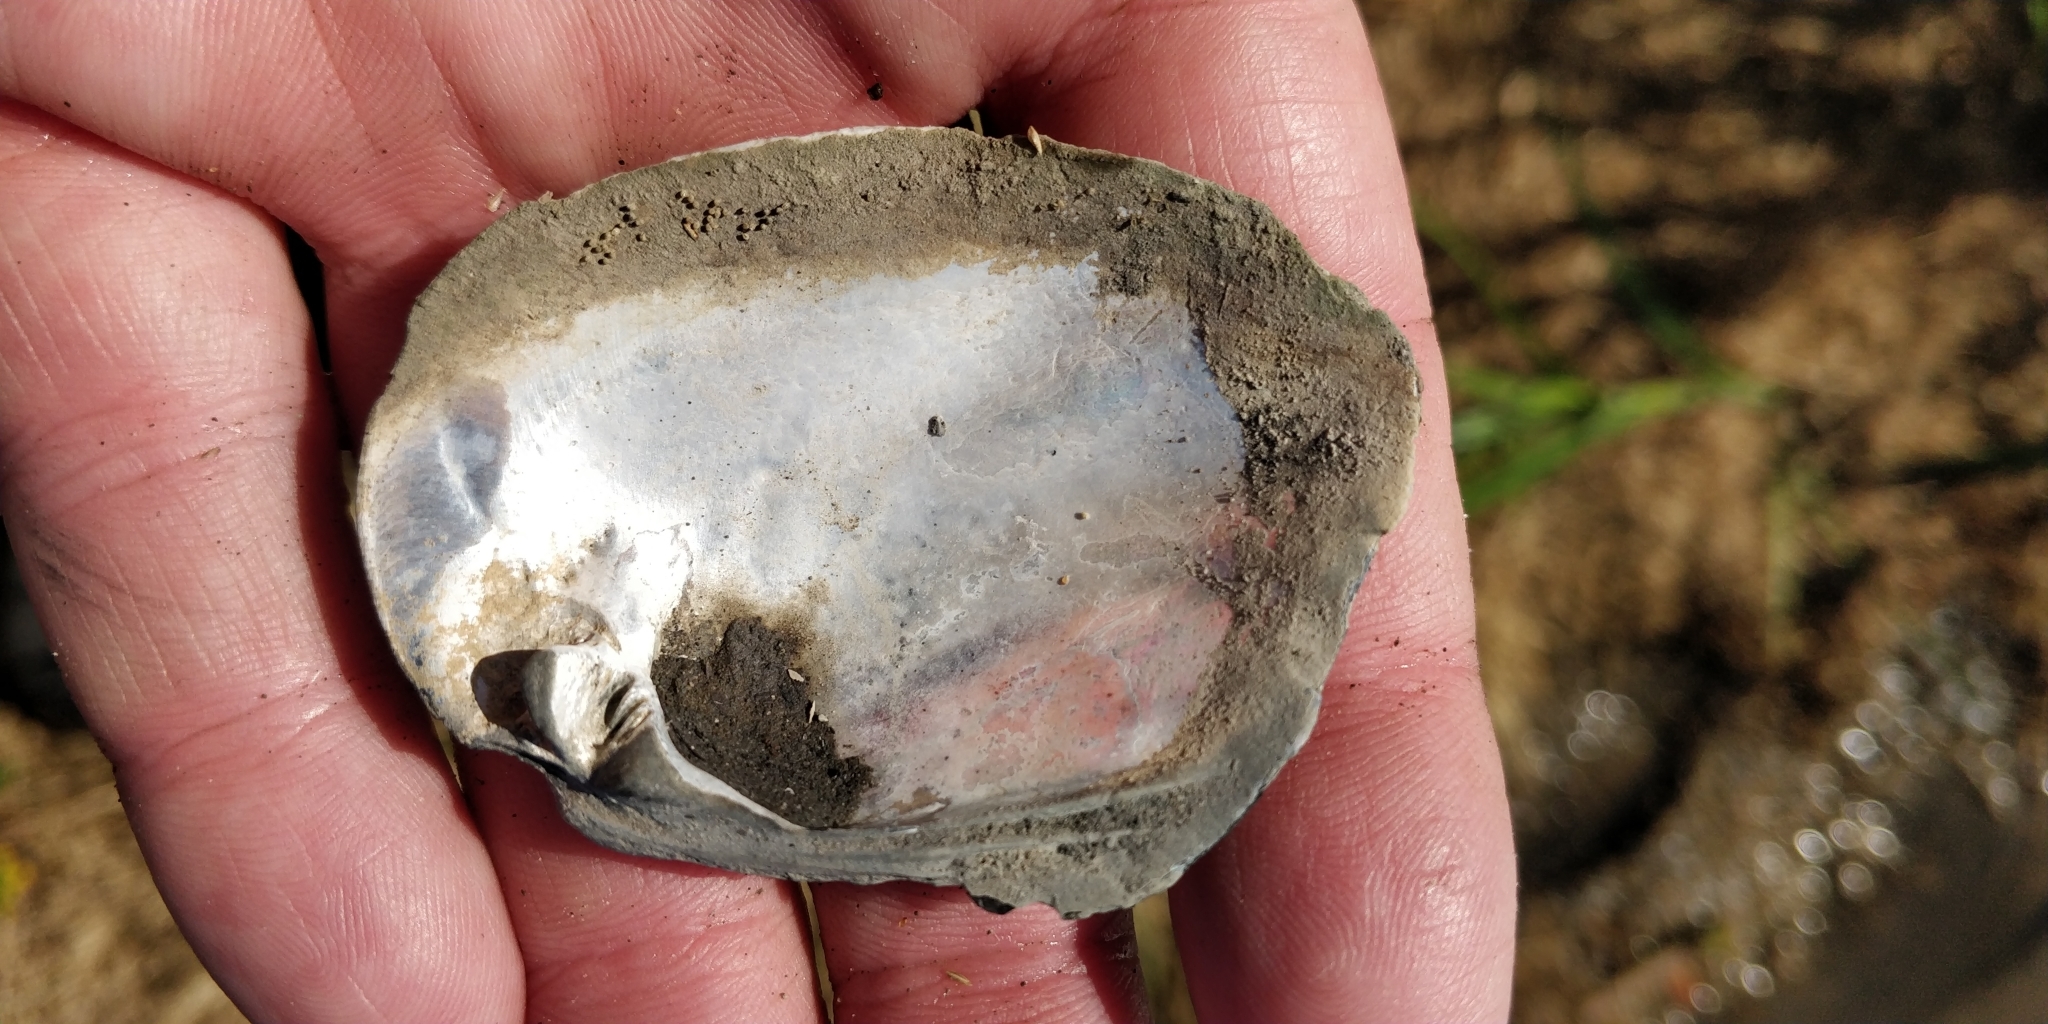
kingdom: Animalia
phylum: Mollusca
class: Bivalvia
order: Unionida
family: Unionidae
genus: Amblema
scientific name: Amblema plicata
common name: Threeridge
